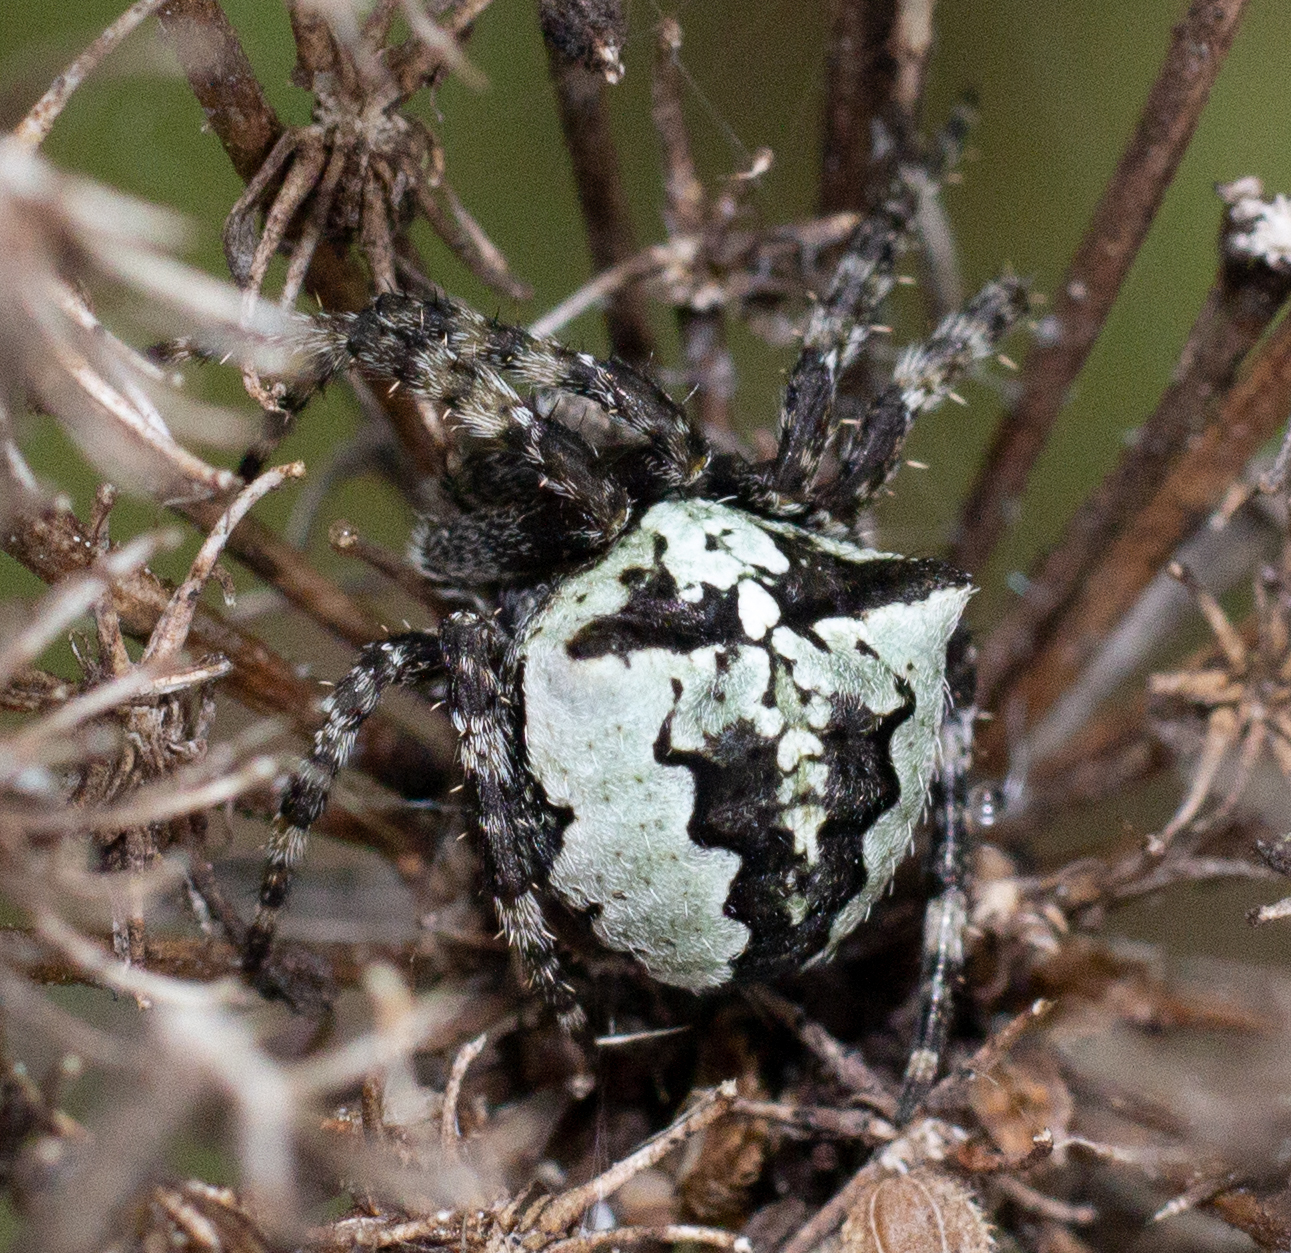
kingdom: Animalia
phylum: Arthropoda
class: Arachnida
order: Araneae
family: Araneidae
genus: Araneus
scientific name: Araneus angulatus
